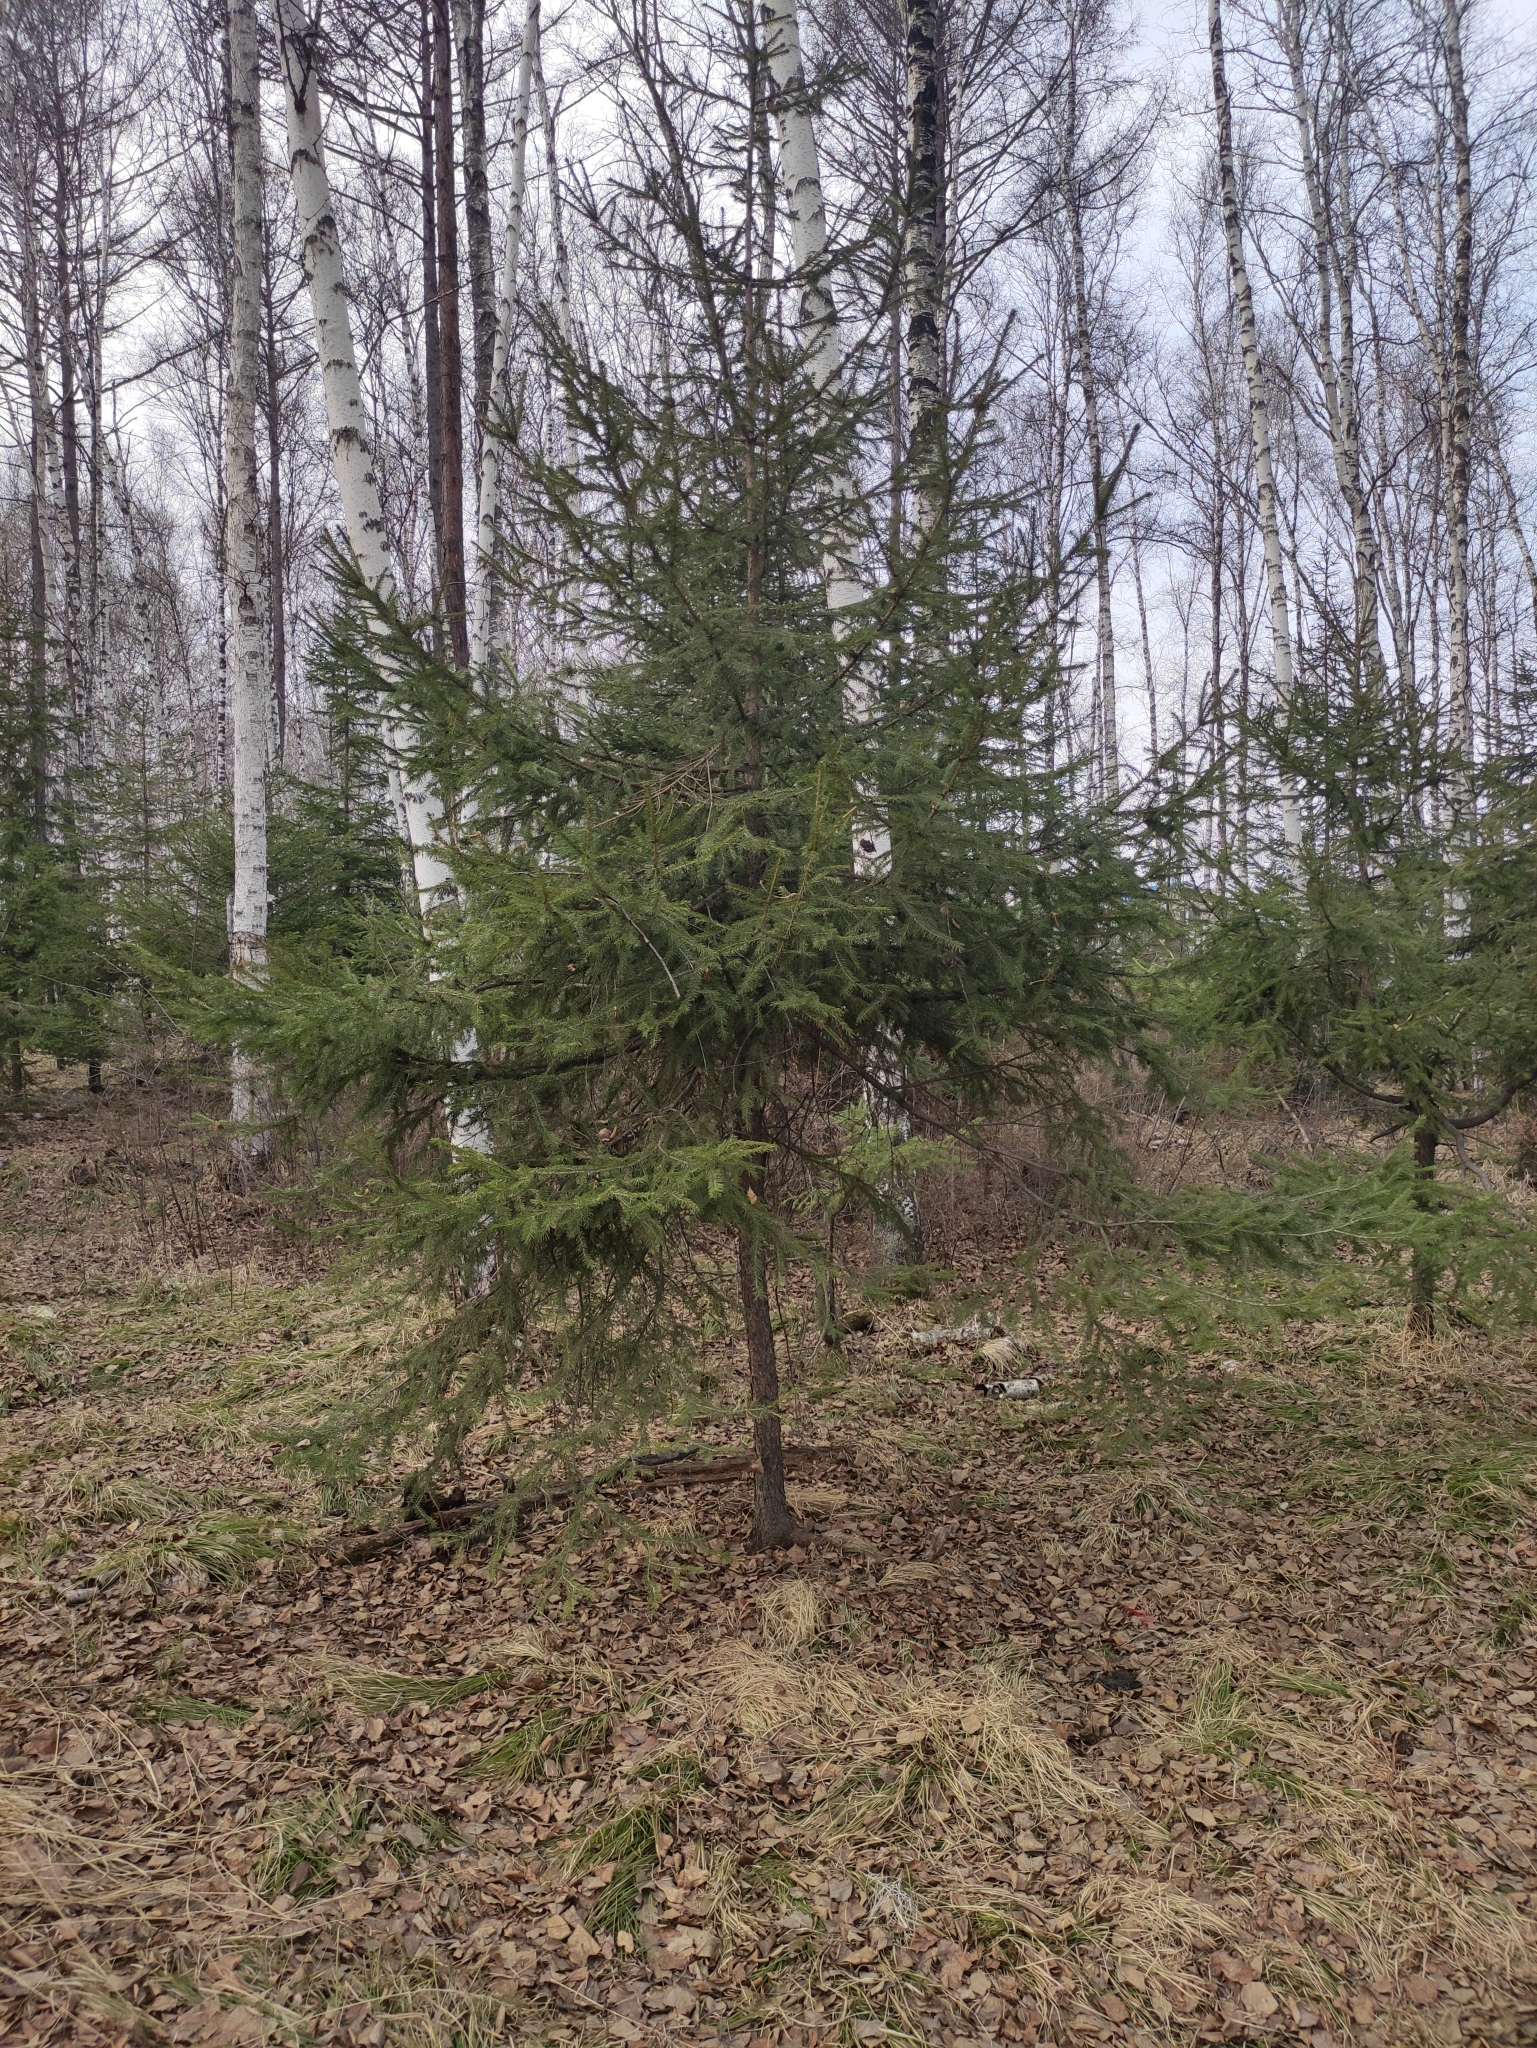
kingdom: Plantae
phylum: Tracheophyta
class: Pinopsida
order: Pinales
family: Pinaceae
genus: Picea
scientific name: Picea obovata
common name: Siberian spruce
